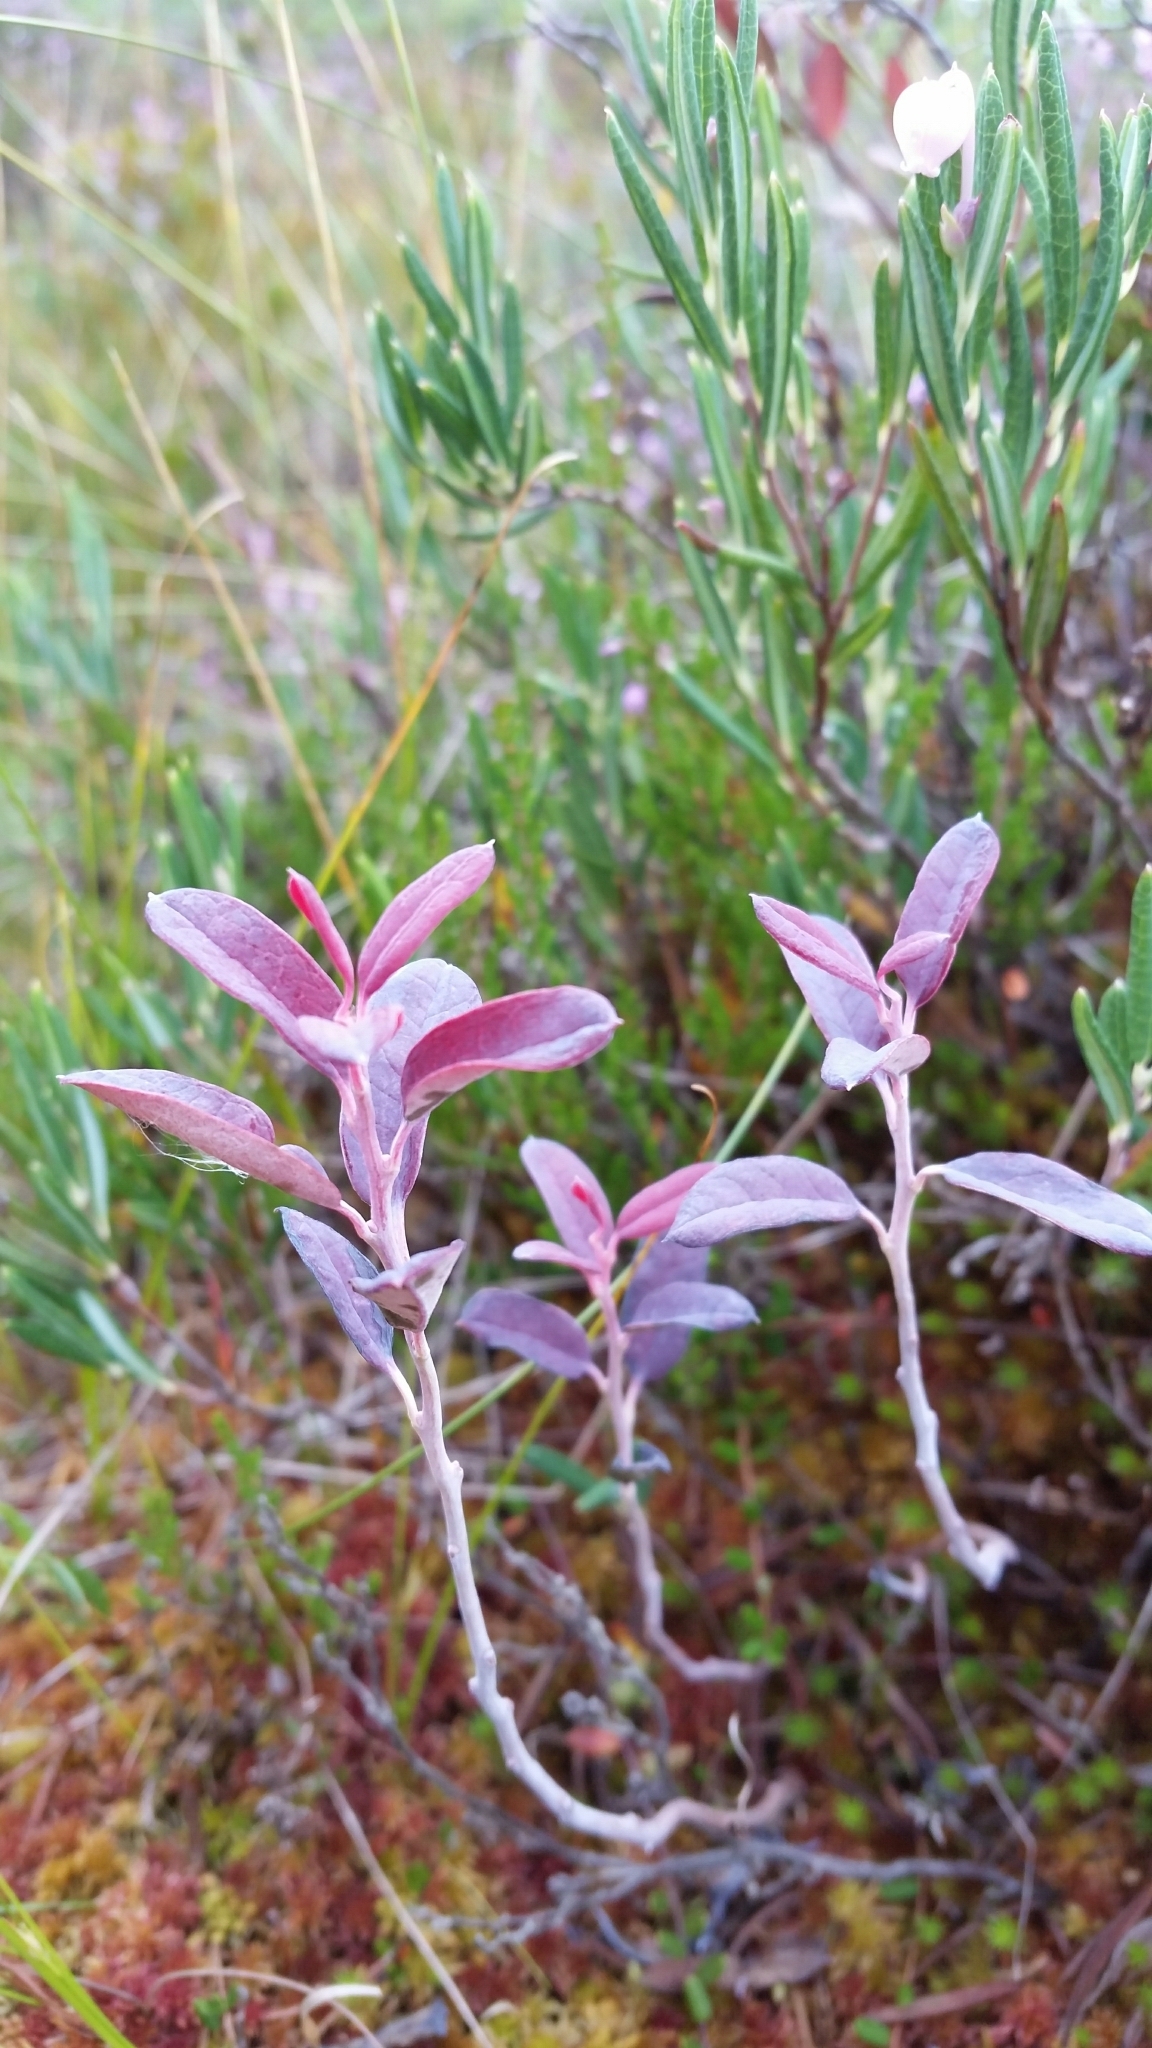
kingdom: Fungi
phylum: Basidiomycota
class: Exobasidiomycetes
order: Exobasidiales
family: Exobasidiaceae
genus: Exobasidium
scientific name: Exobasidium karstenii
